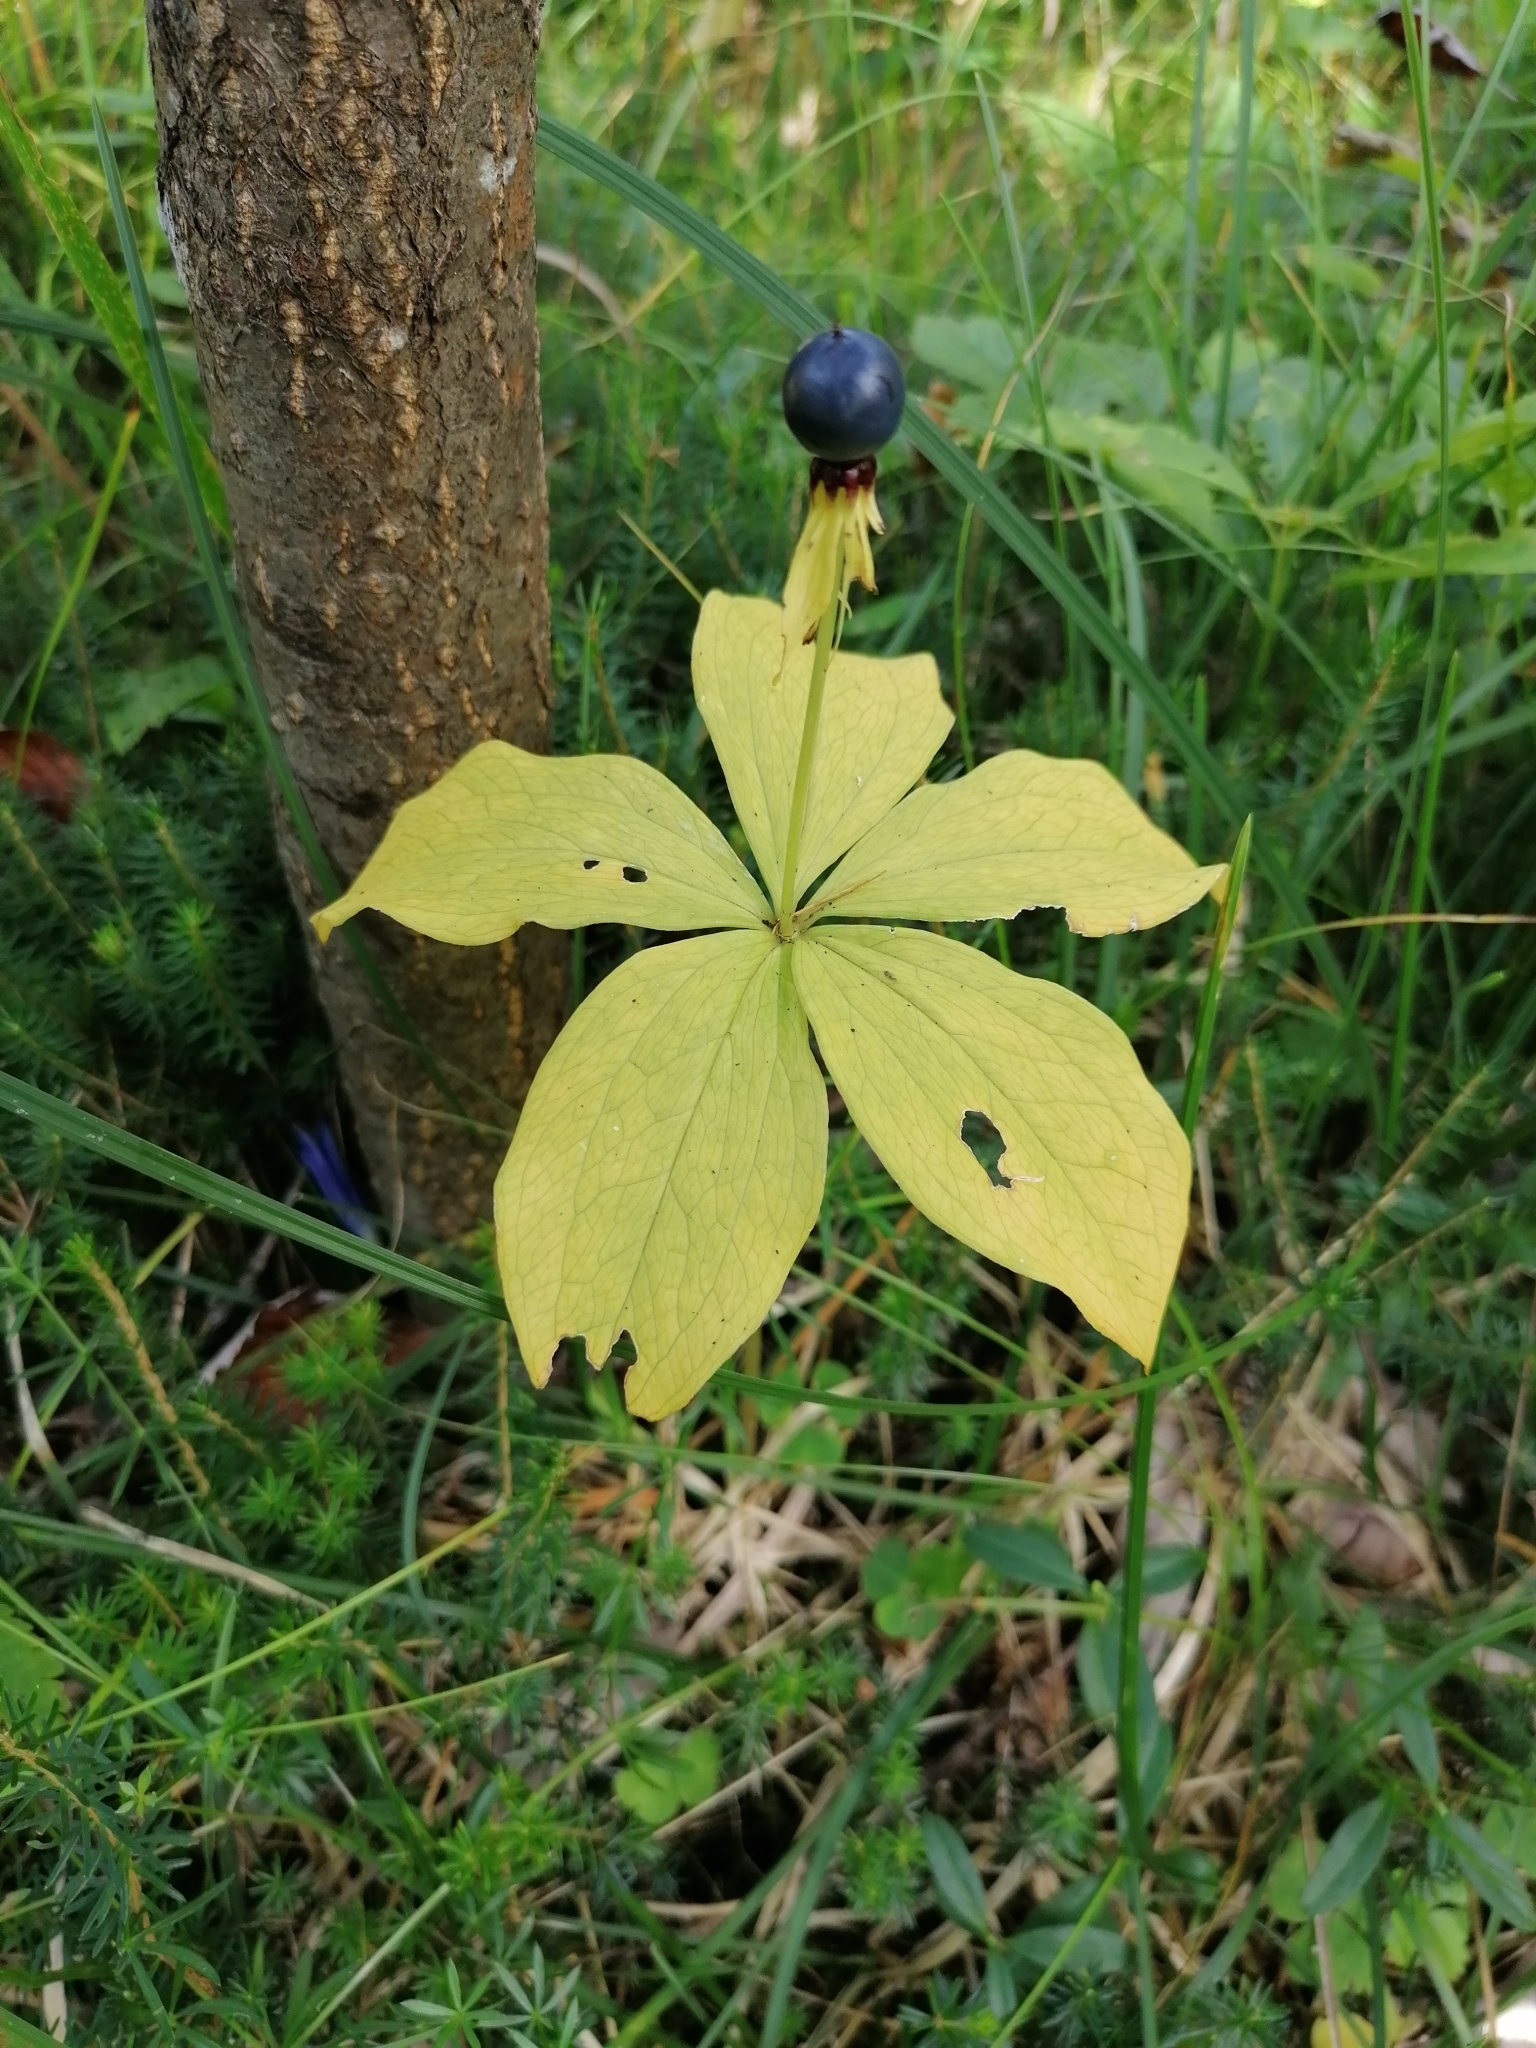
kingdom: Plantae
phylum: Tracheophyta
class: Liliopsida
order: Liliales
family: Melanthiaceae
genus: Paris
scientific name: Paris quadrifolia
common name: Herb-paris
